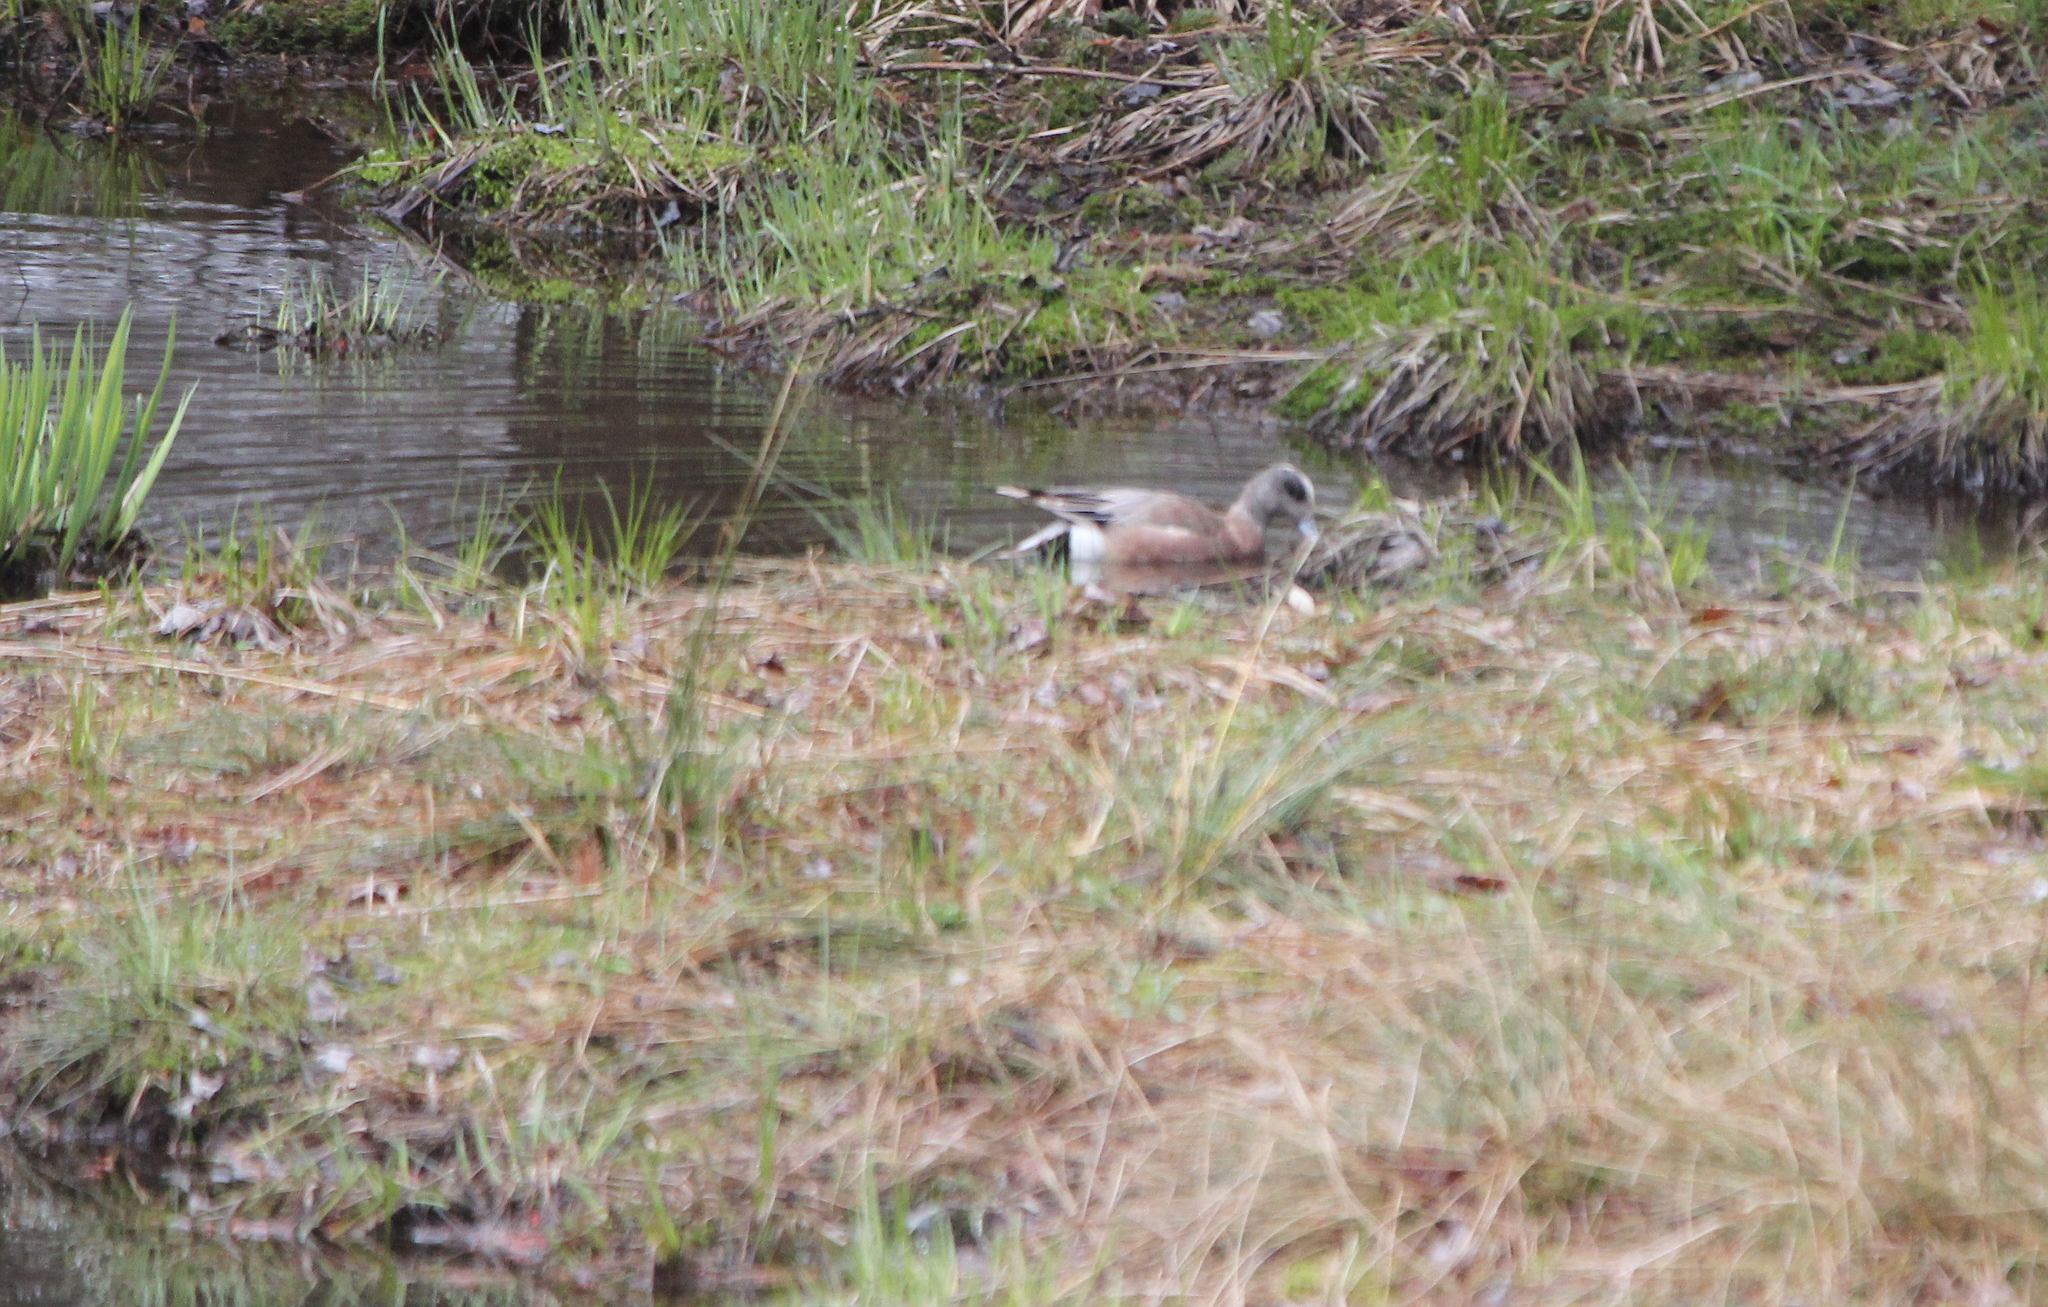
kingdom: Animalia
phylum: Chordata
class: Aves
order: Anseriformes
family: Anatidae
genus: Mareca
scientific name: Mareca americana
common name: American wigeon
